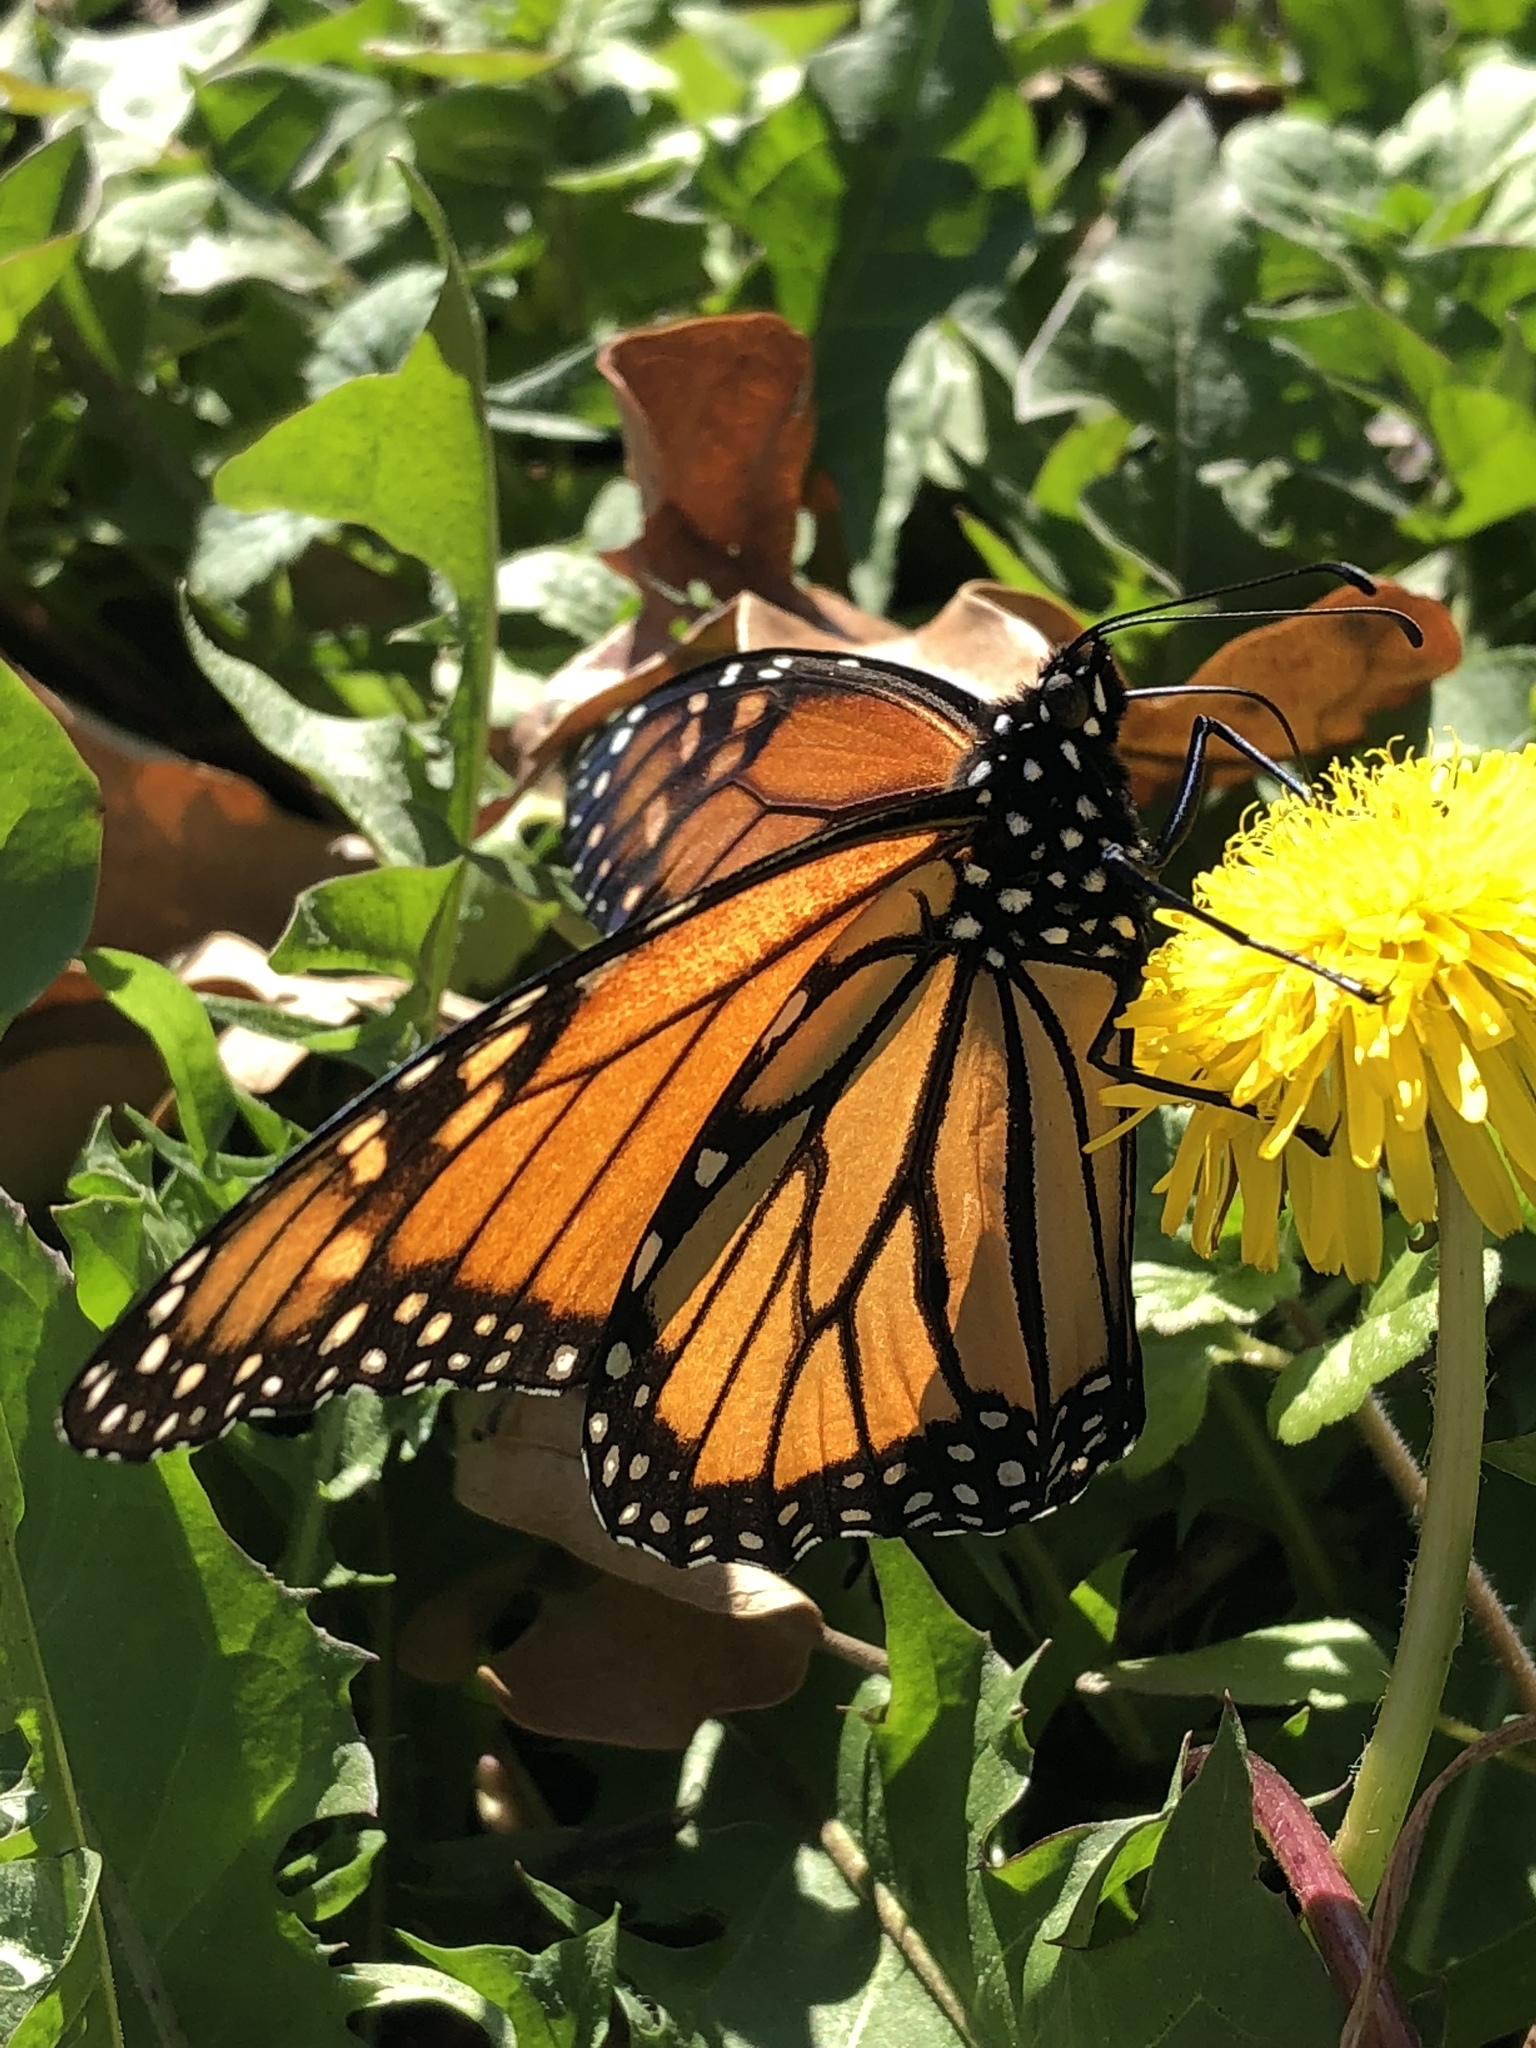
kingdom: Animalia
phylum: Arthropoda
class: Insecta
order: Lepidoptera
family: Nymphalidae
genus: Danaus
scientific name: Danaus plexippus
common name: Monarch
